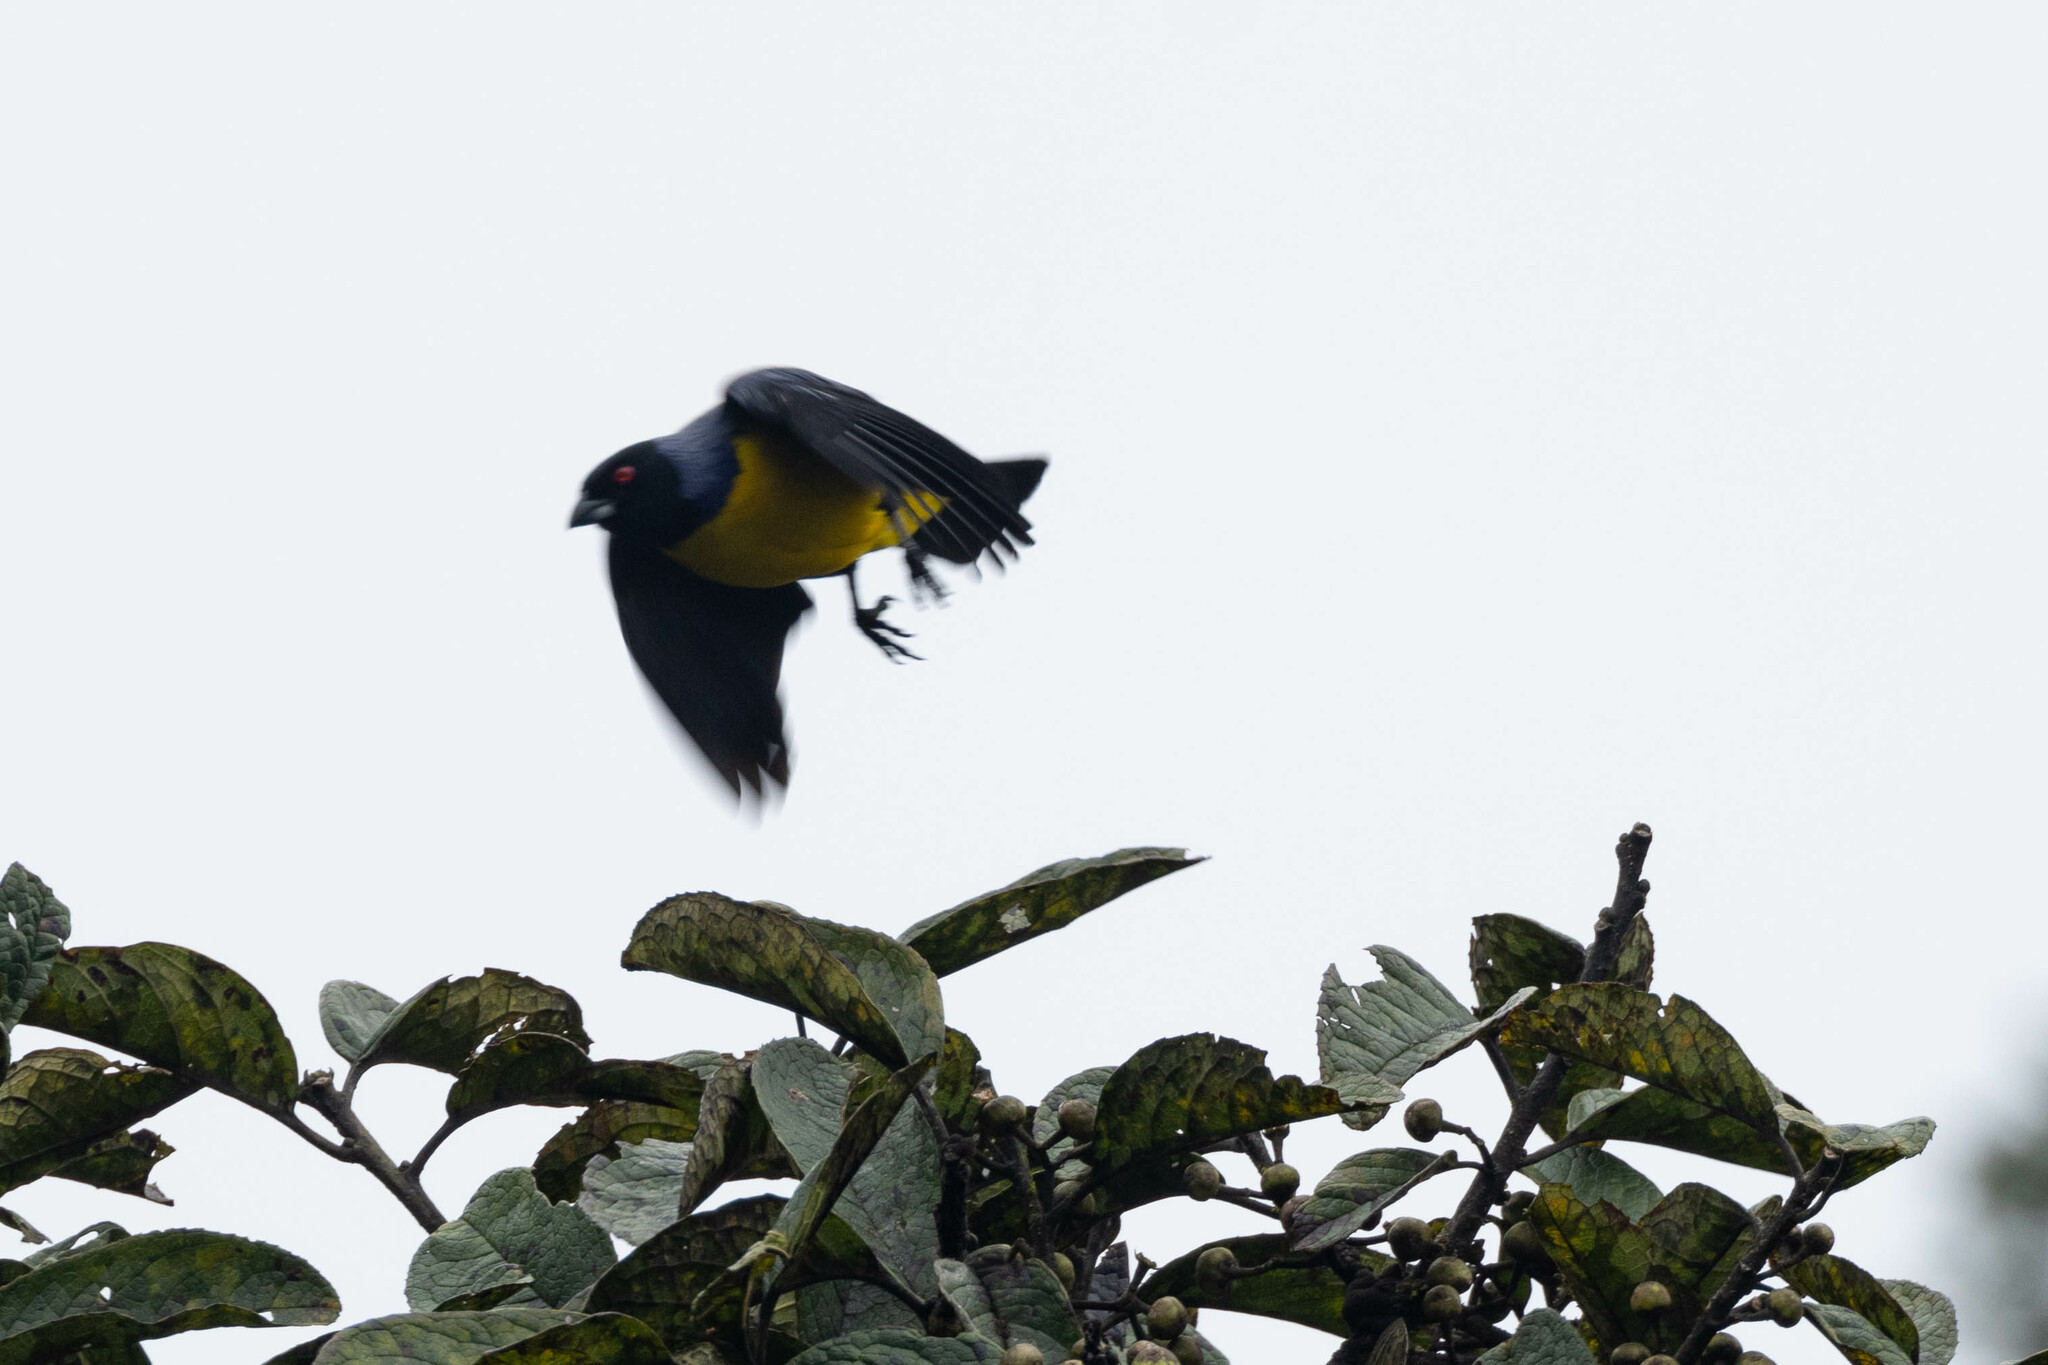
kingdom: Animalia
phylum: Chordata
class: Aves
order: Passeriformes
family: Thraupidae
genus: Buthraupis
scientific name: Buthraupis montana
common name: Hooded mountain tanager
